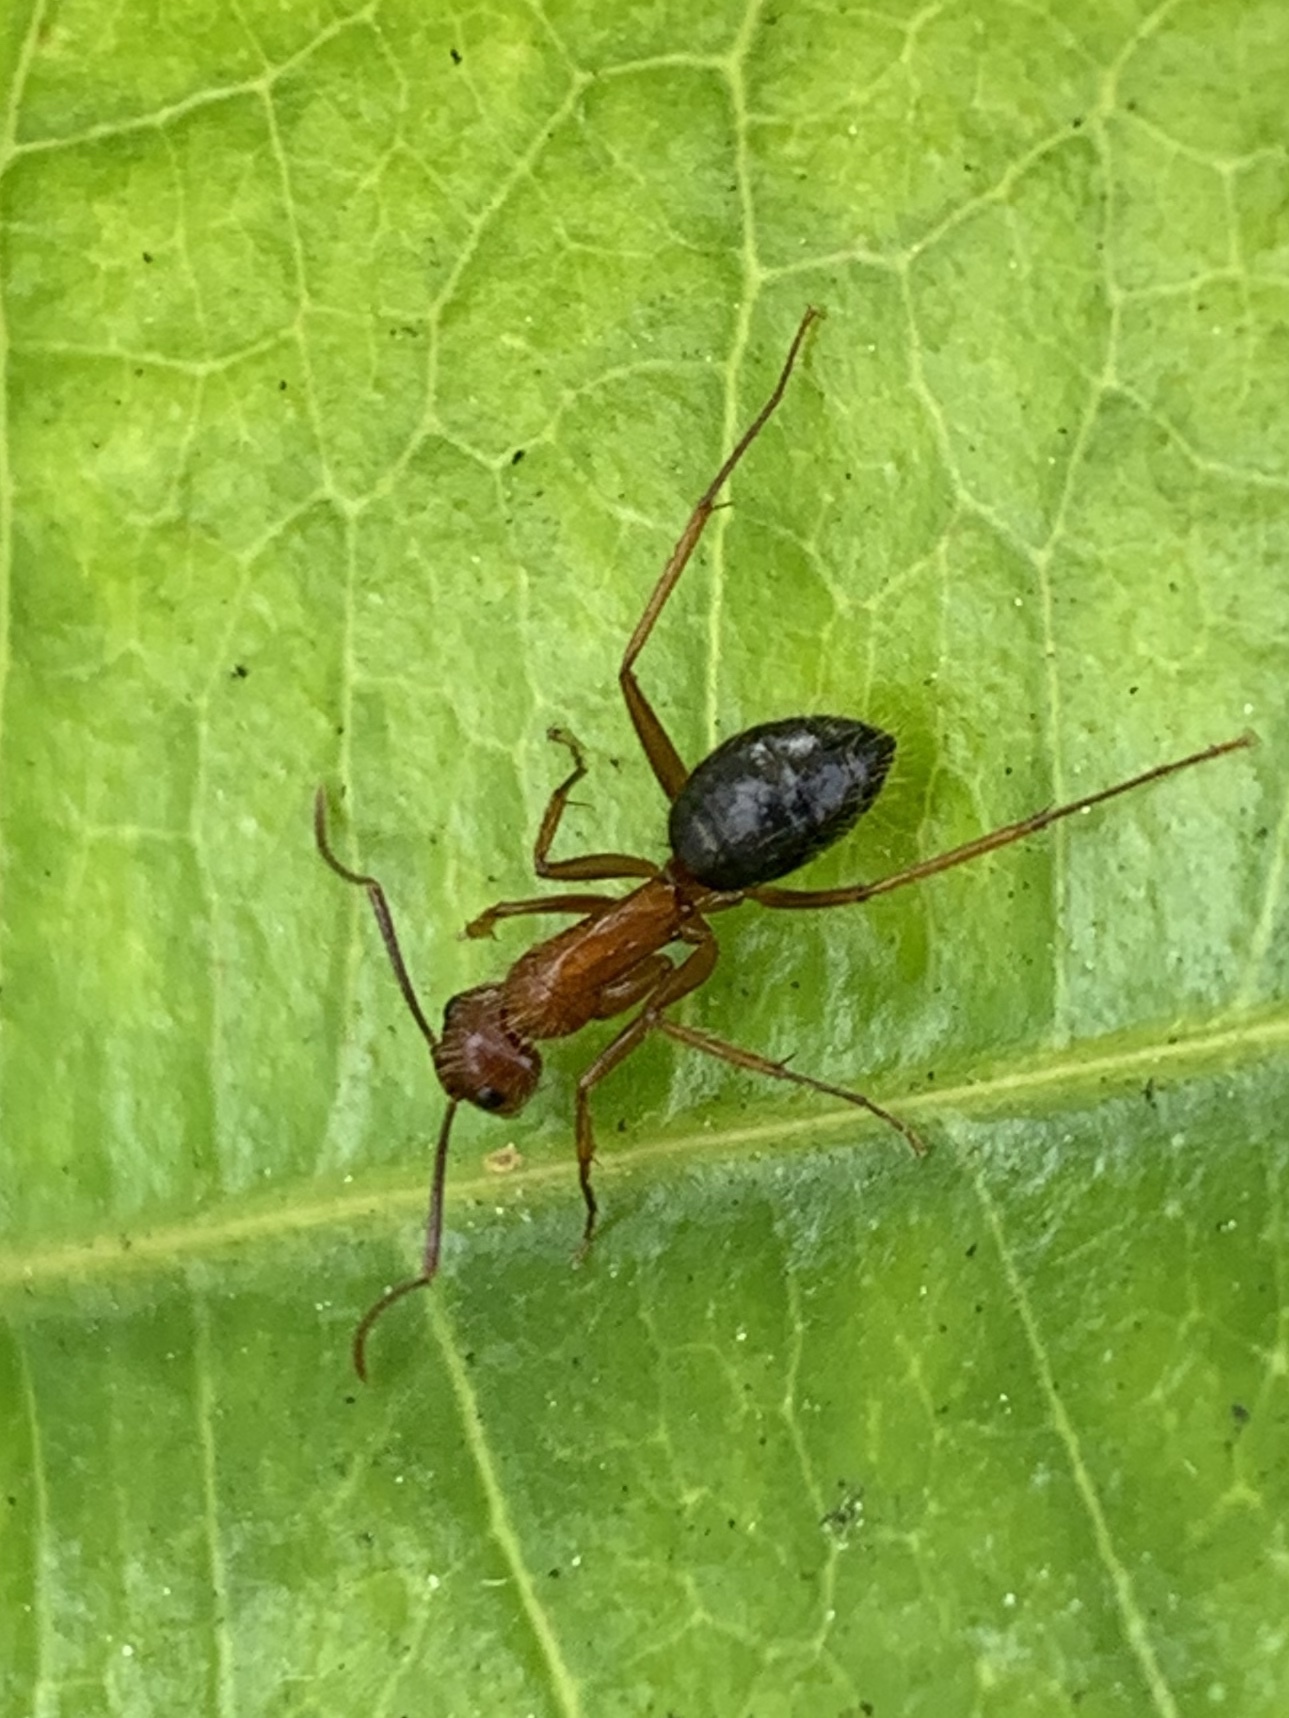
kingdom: Animalia
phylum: Arthropoda
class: Insecta
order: Hymenoptera
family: Formicidae
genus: Camponotus
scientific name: Camponotus floridanus
